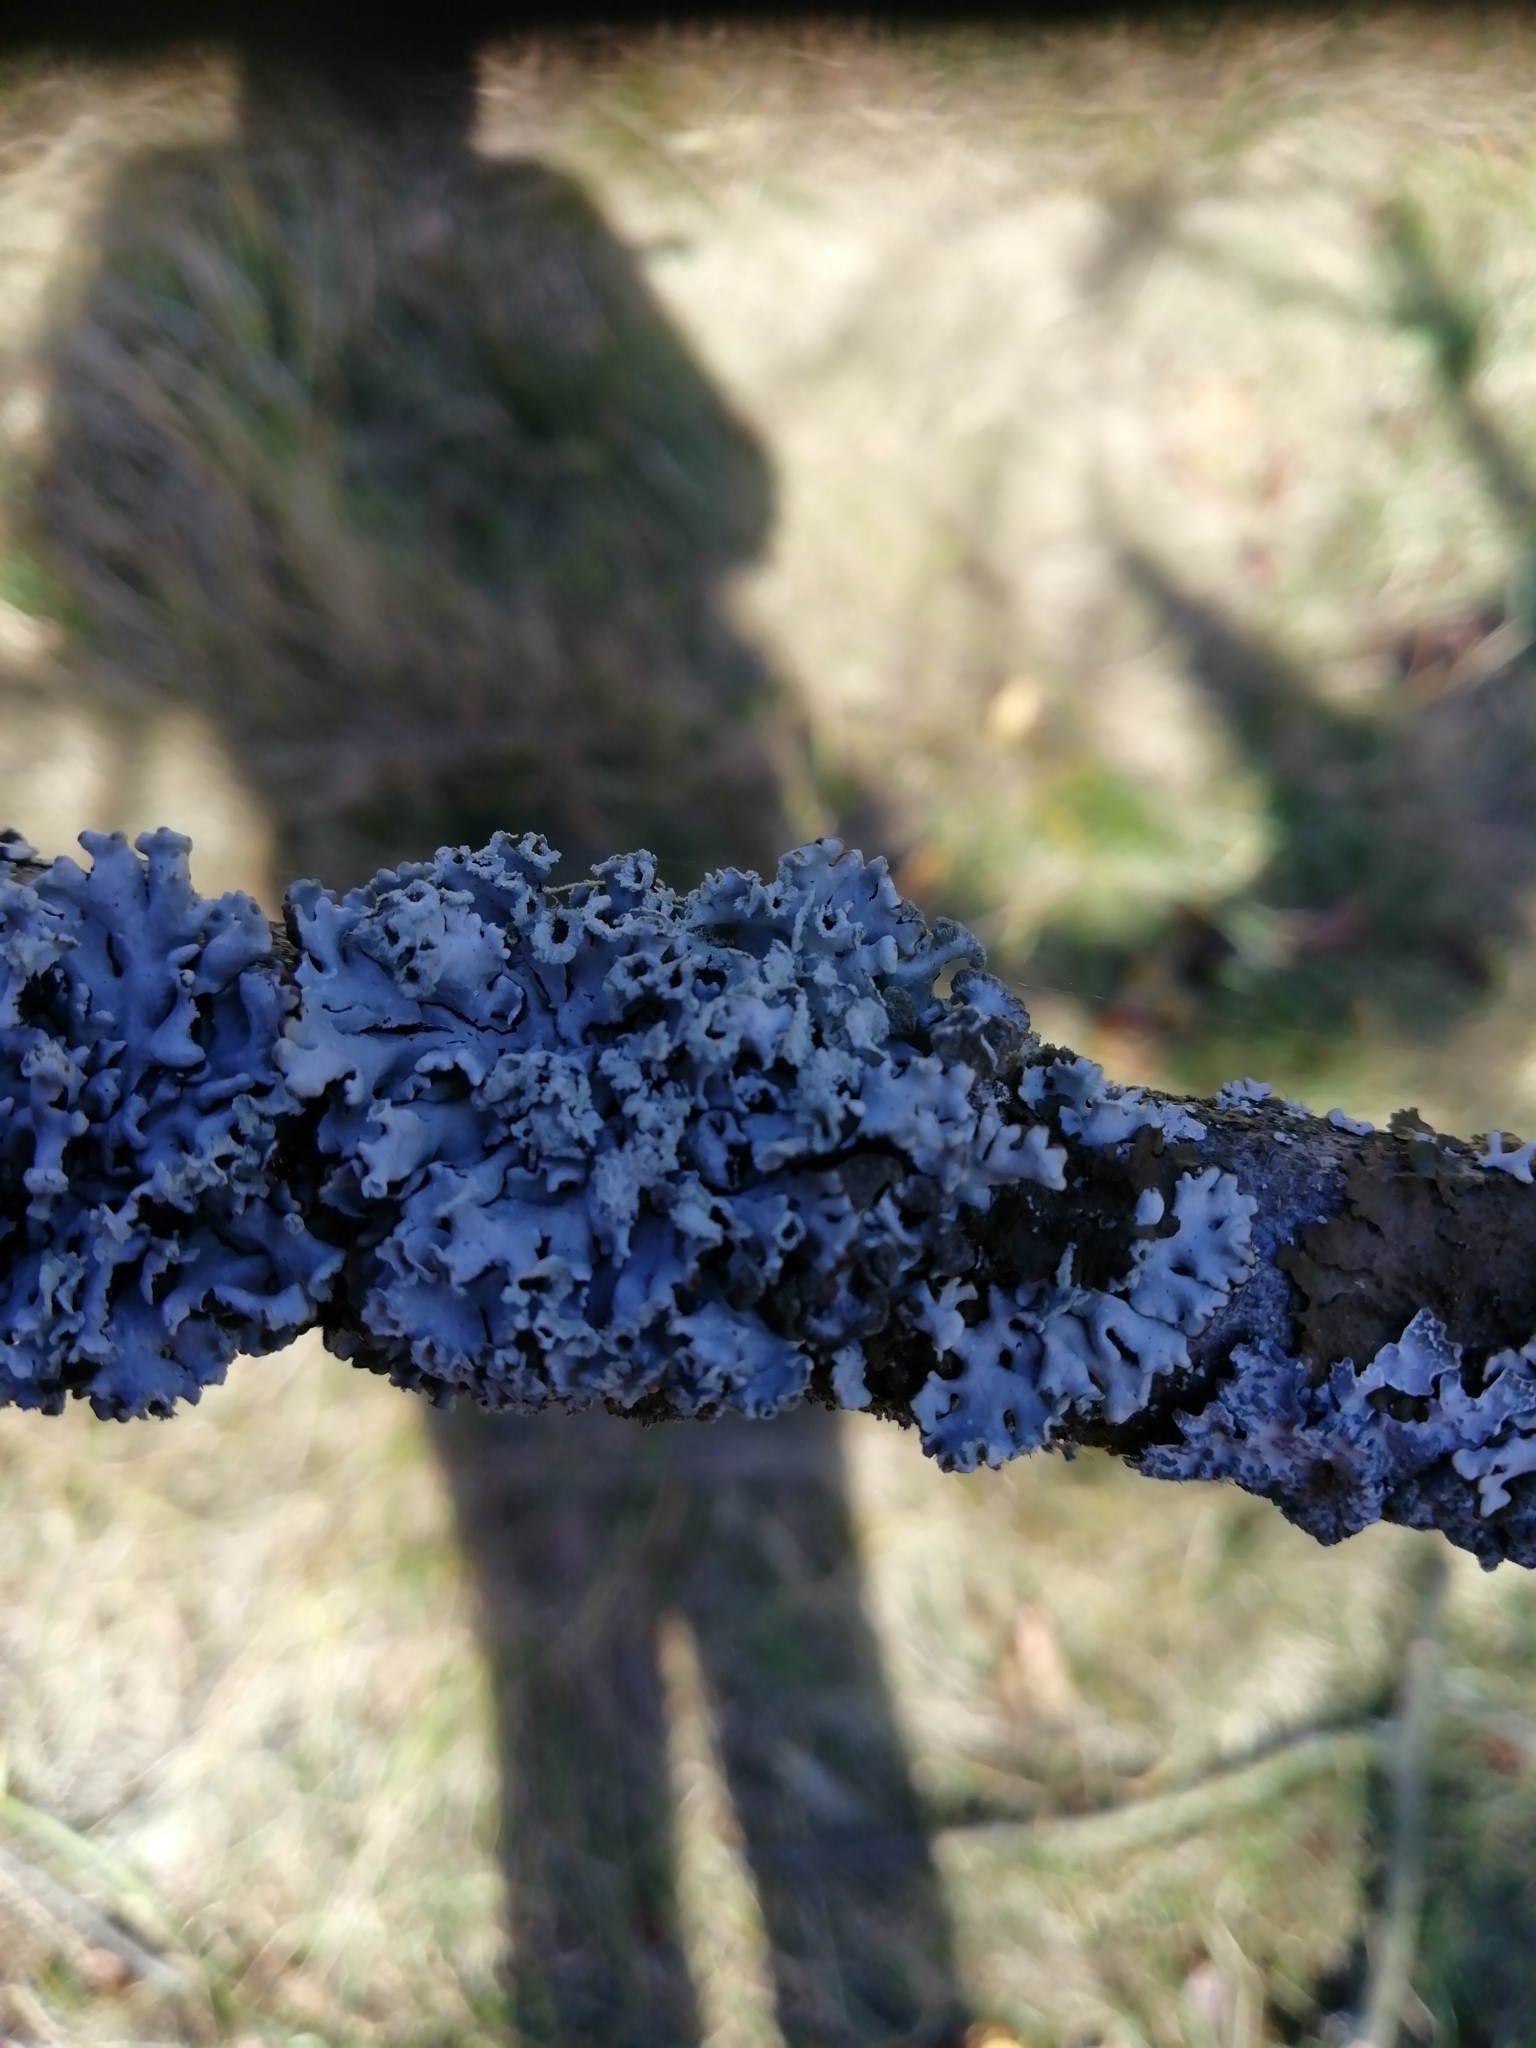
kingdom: Fungi
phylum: Ascomycota
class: Lecanoromycetes
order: Lecanorales
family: Parmeliaceae
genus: Hypogymnia
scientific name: Hypogymnia physodes
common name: Dark crottle
